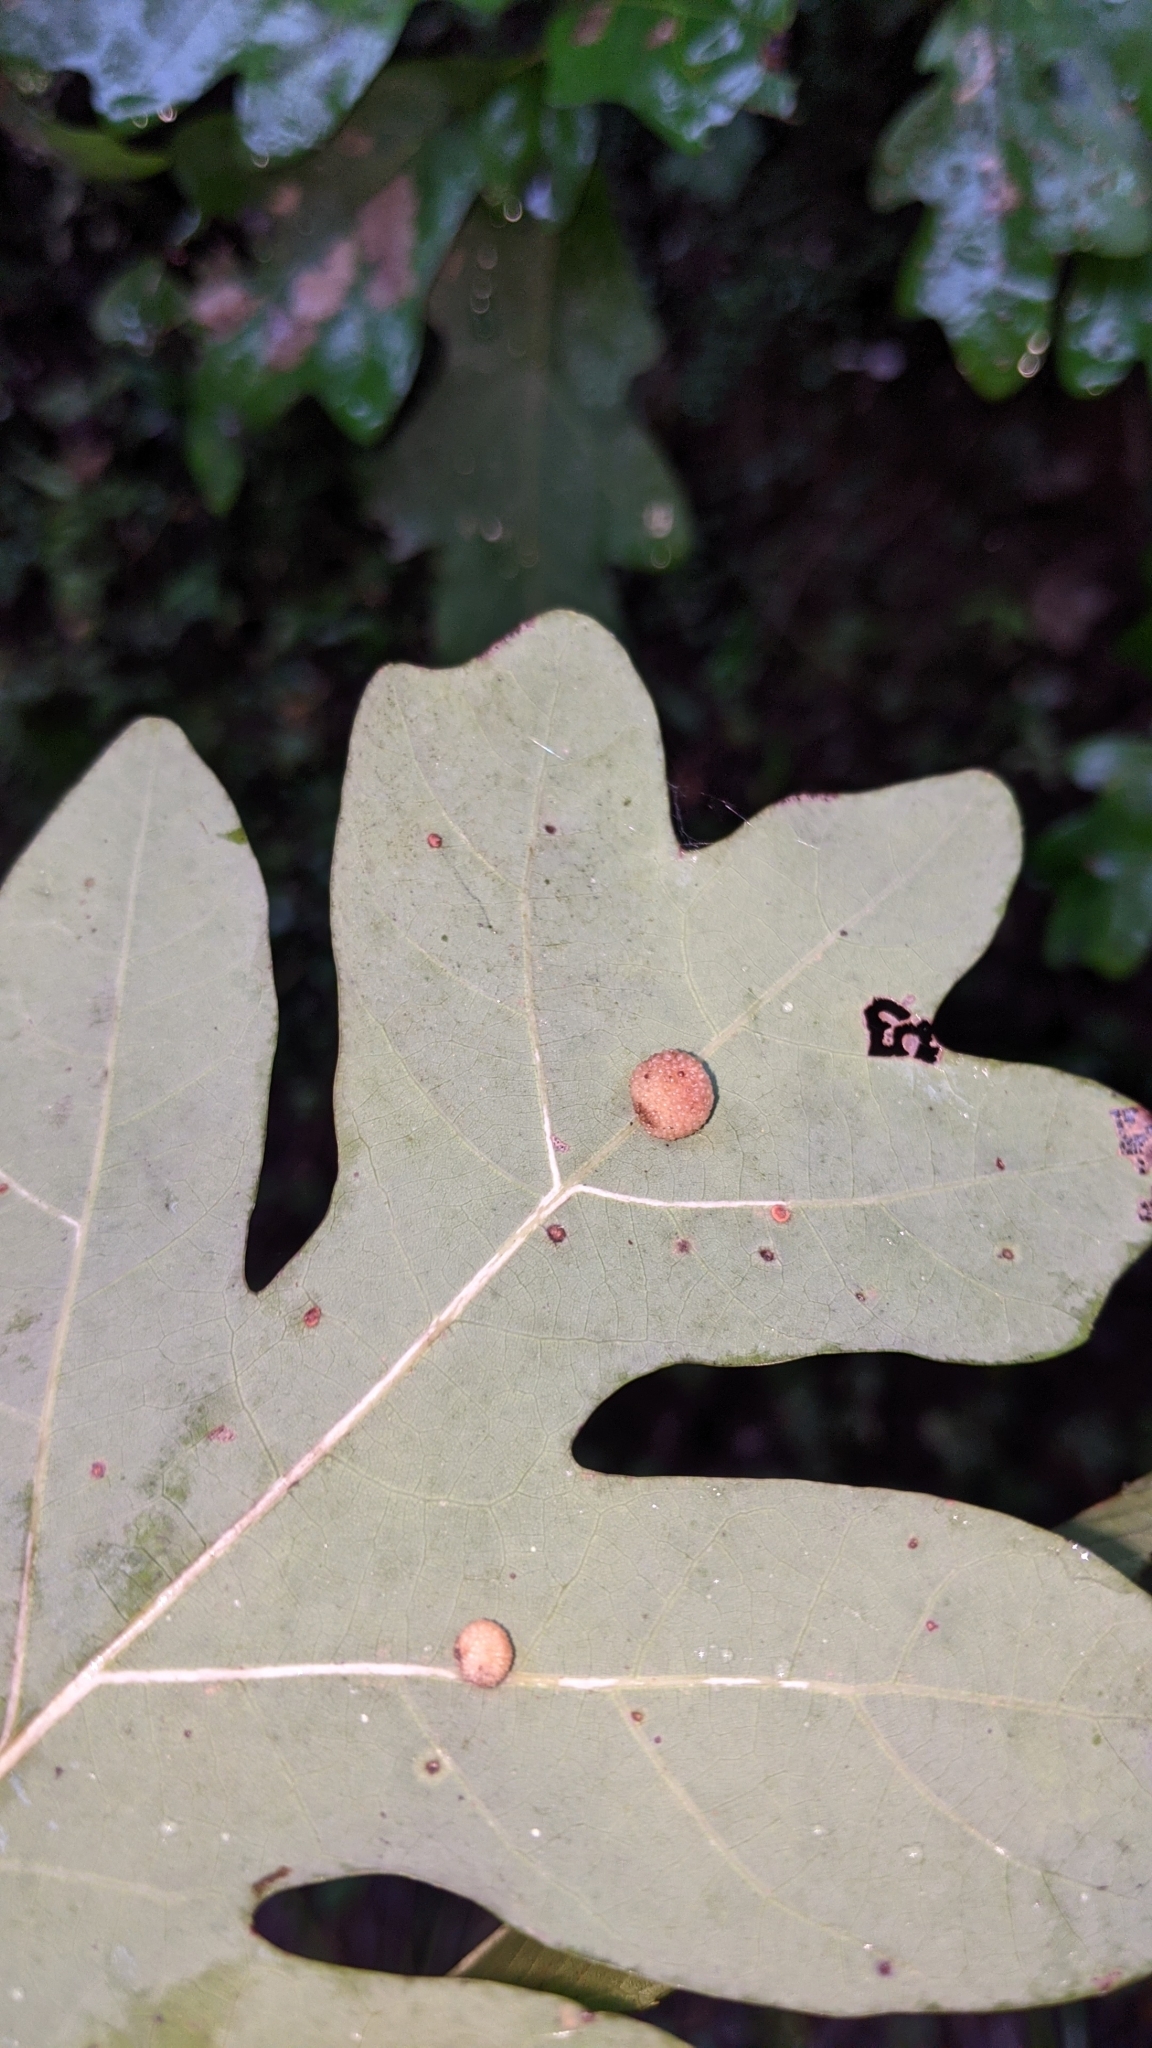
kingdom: Animalia
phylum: Arthropoda
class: Insecta
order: Hymenoptera
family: Cynipidae
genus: Acraspis
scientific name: Acraspis
